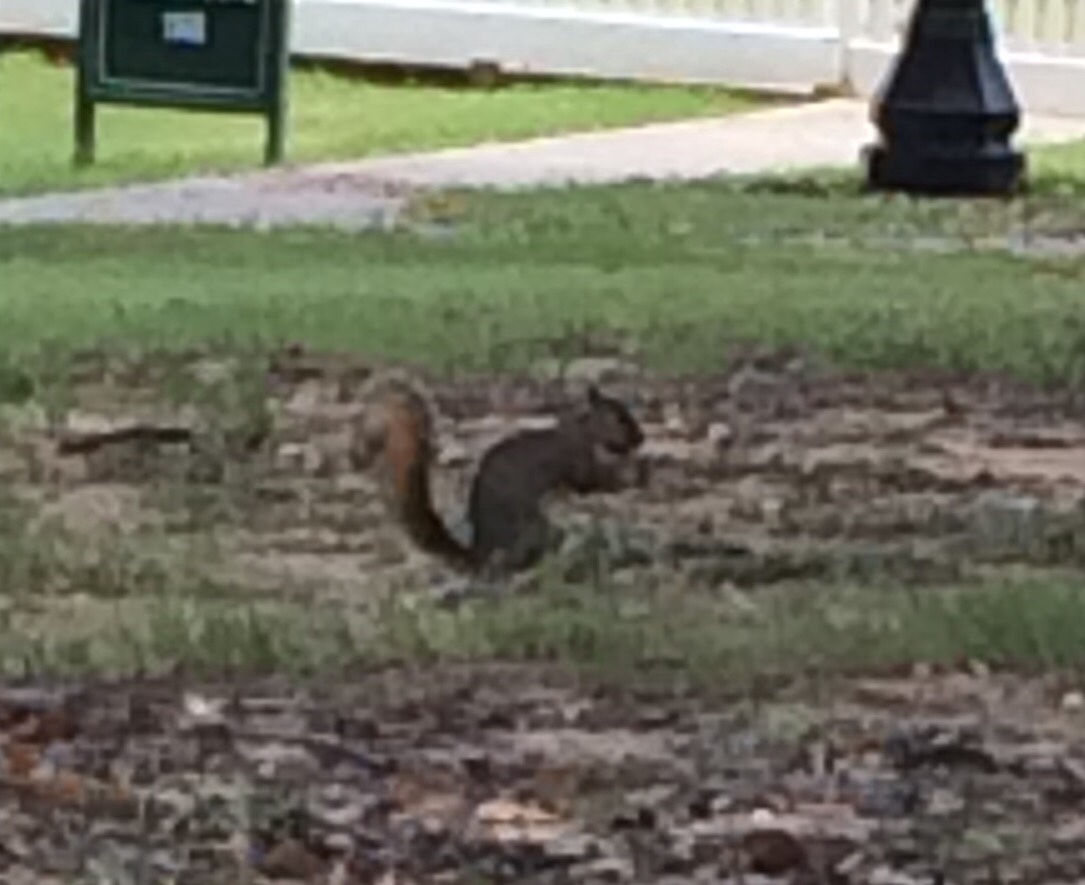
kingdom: Animalia
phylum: Chordata
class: Mammalia
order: Rodentia
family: Sciuridae
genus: Sciurus
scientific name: Sciurus niger
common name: Fox squirrel
